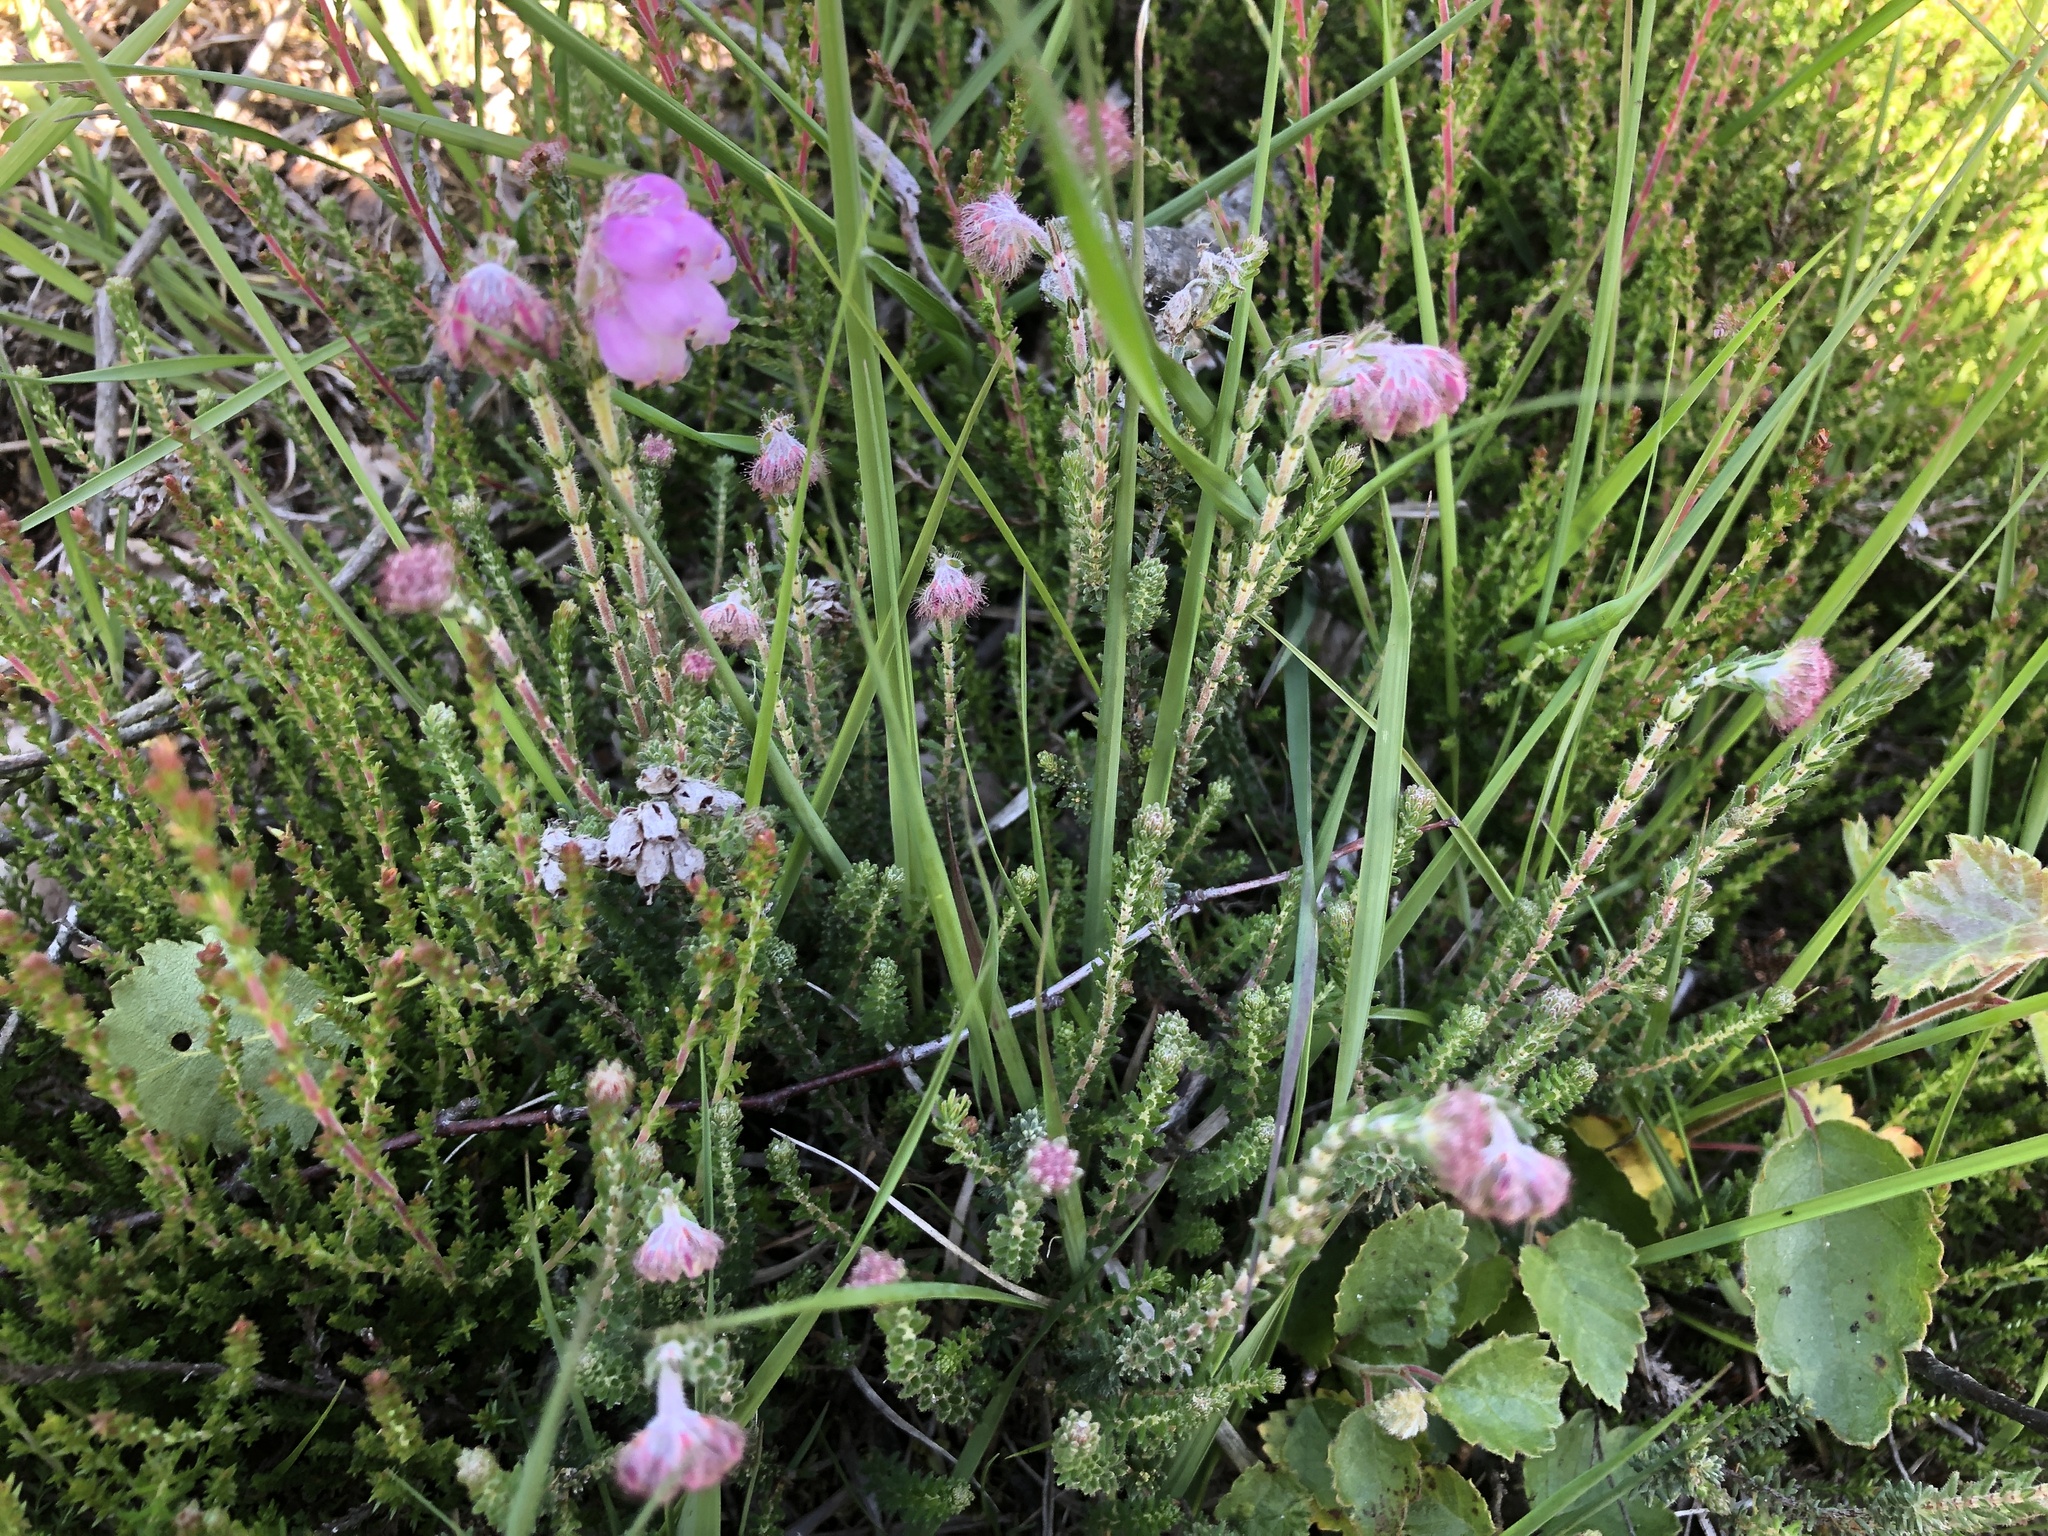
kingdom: Plantae
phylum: Tracheophyta
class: Magnoliopsida
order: Ericales
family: Ericaceae
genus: Erica
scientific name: Erica tetralix
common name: Cross-leaved heath
